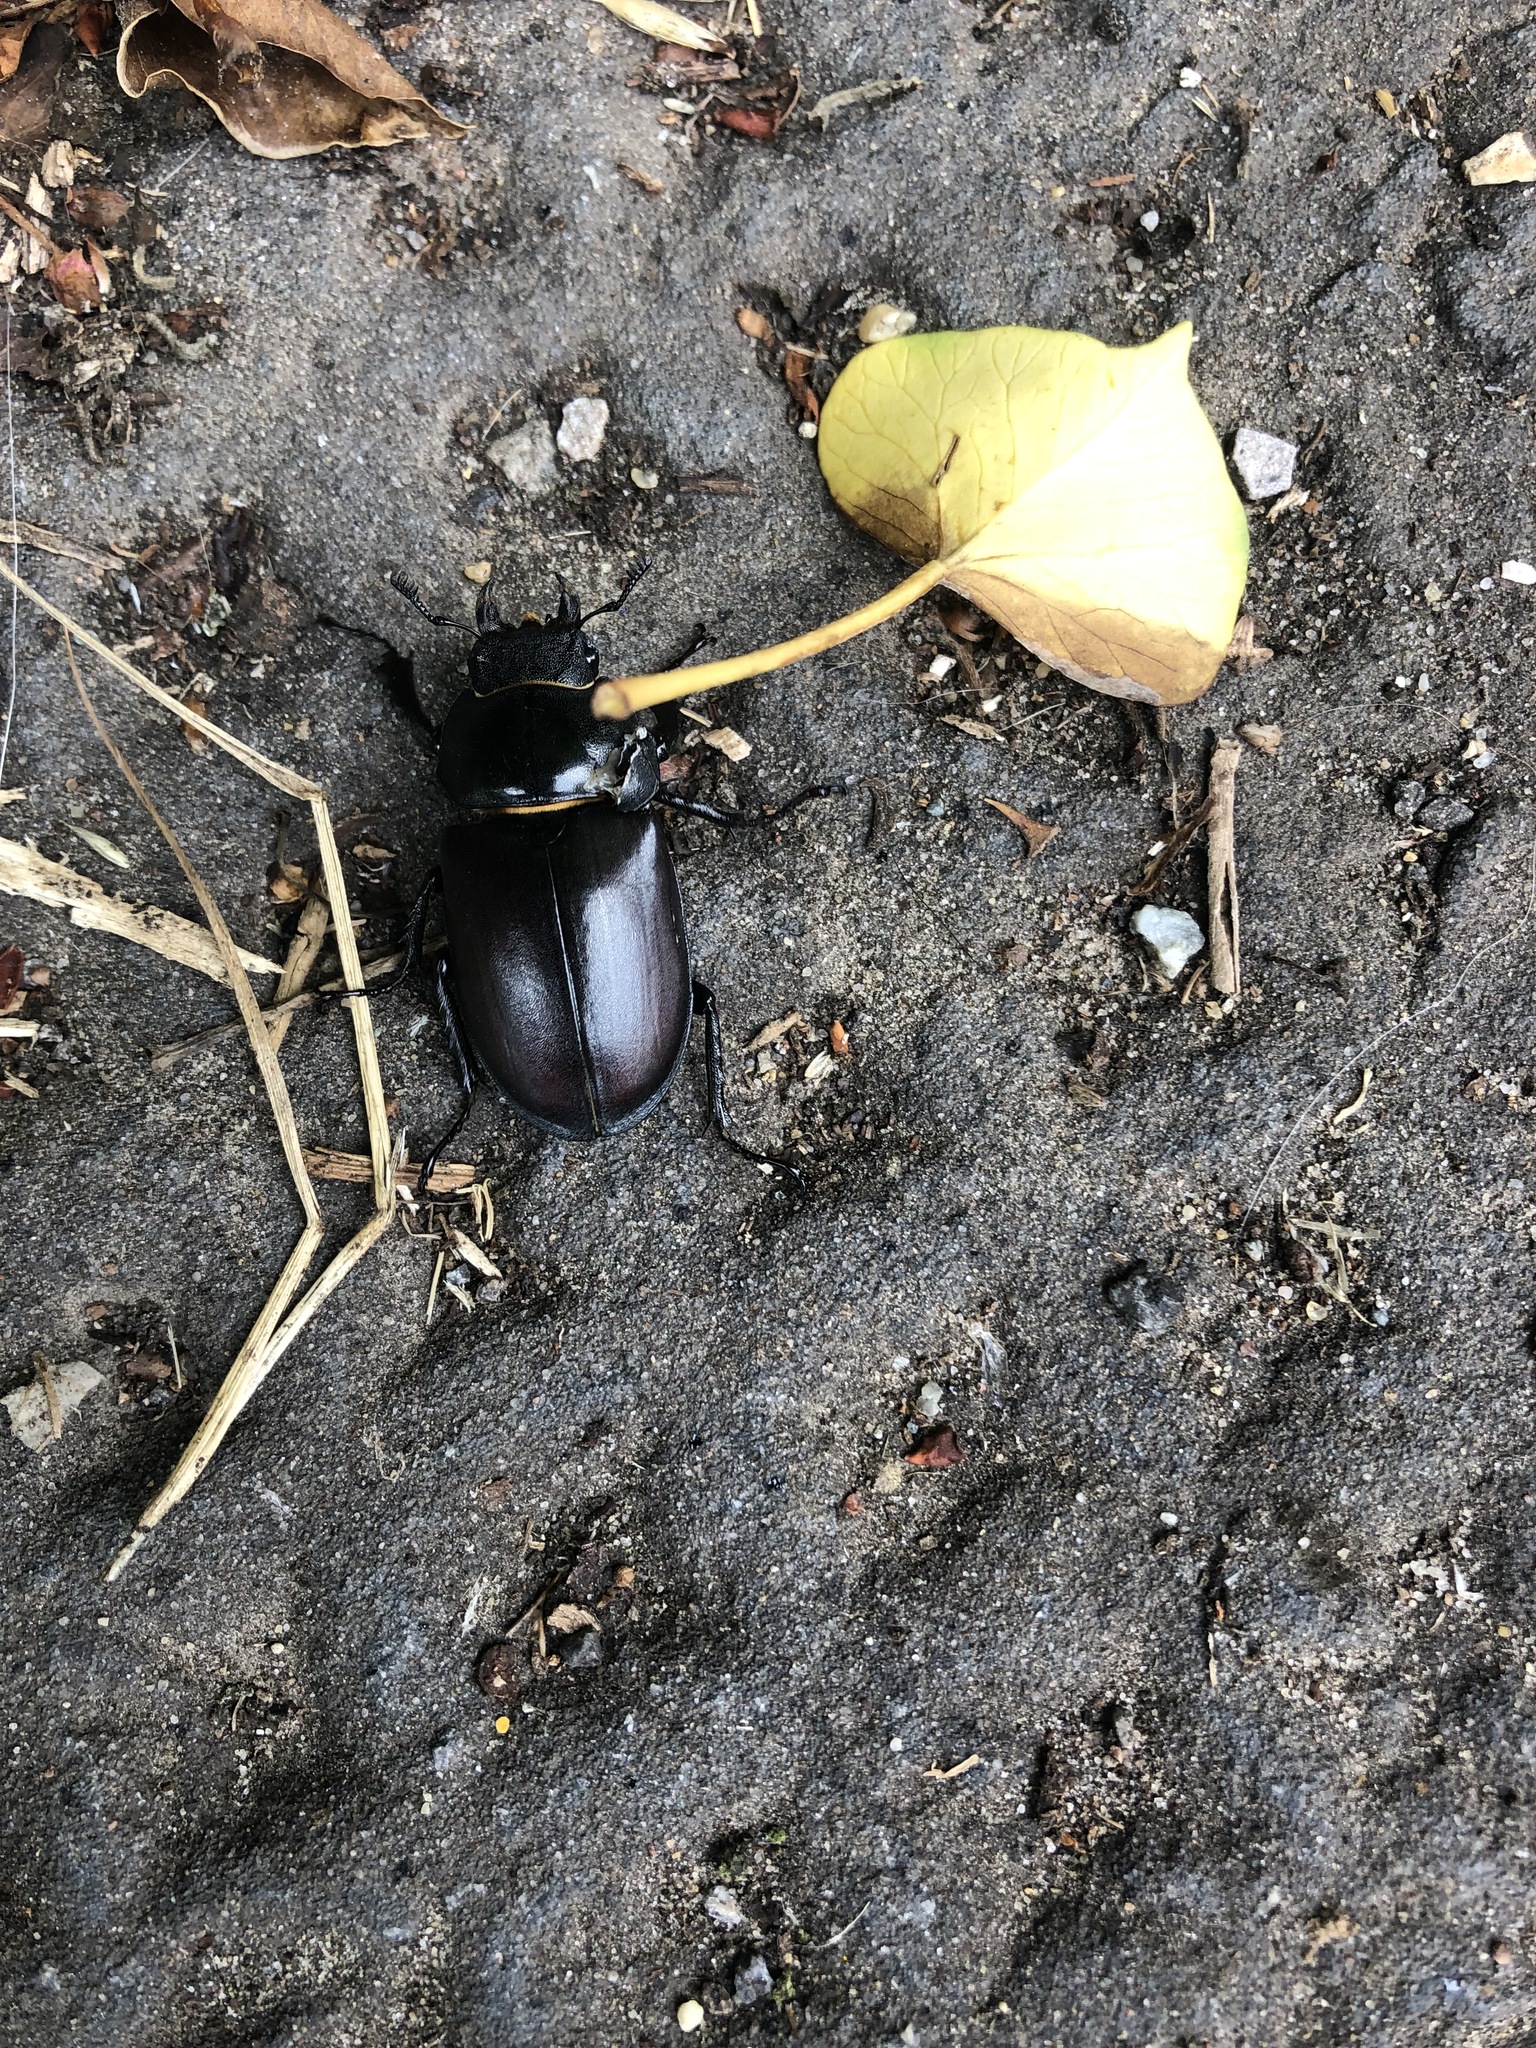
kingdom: Animalia
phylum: Arthropoda
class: Insecta
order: Coleoptera
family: Lucanidae
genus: Lucanus
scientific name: Lucanus cervus
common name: Stag beetle
